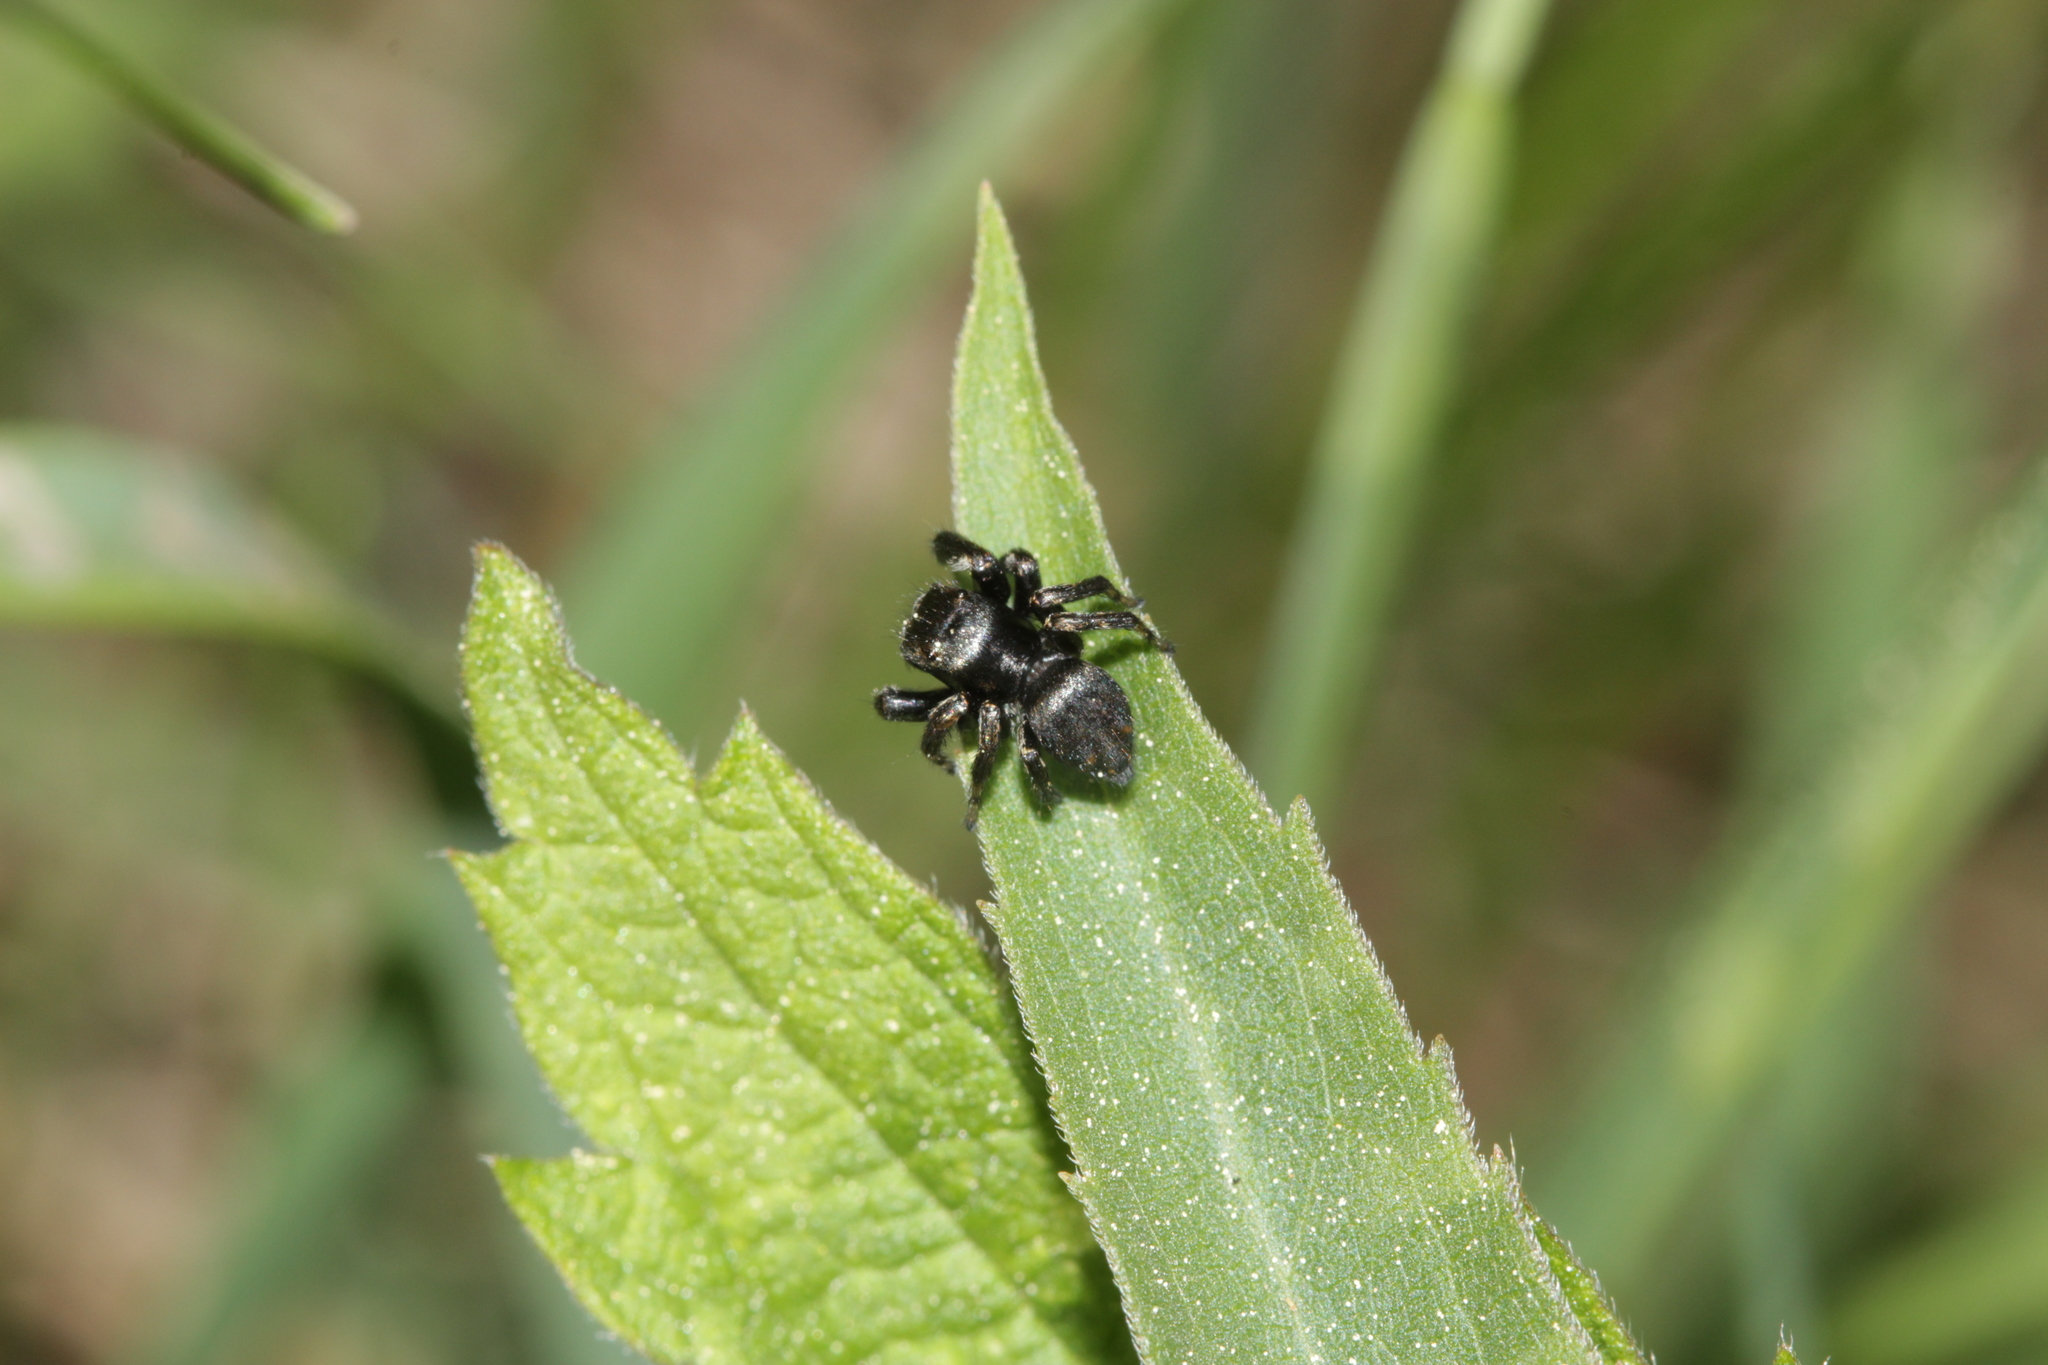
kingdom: Animalia
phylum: Arthropoda
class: Arachnida
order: Araneae
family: Salticidae
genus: Evarcha
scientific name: Evarcha arcuata
